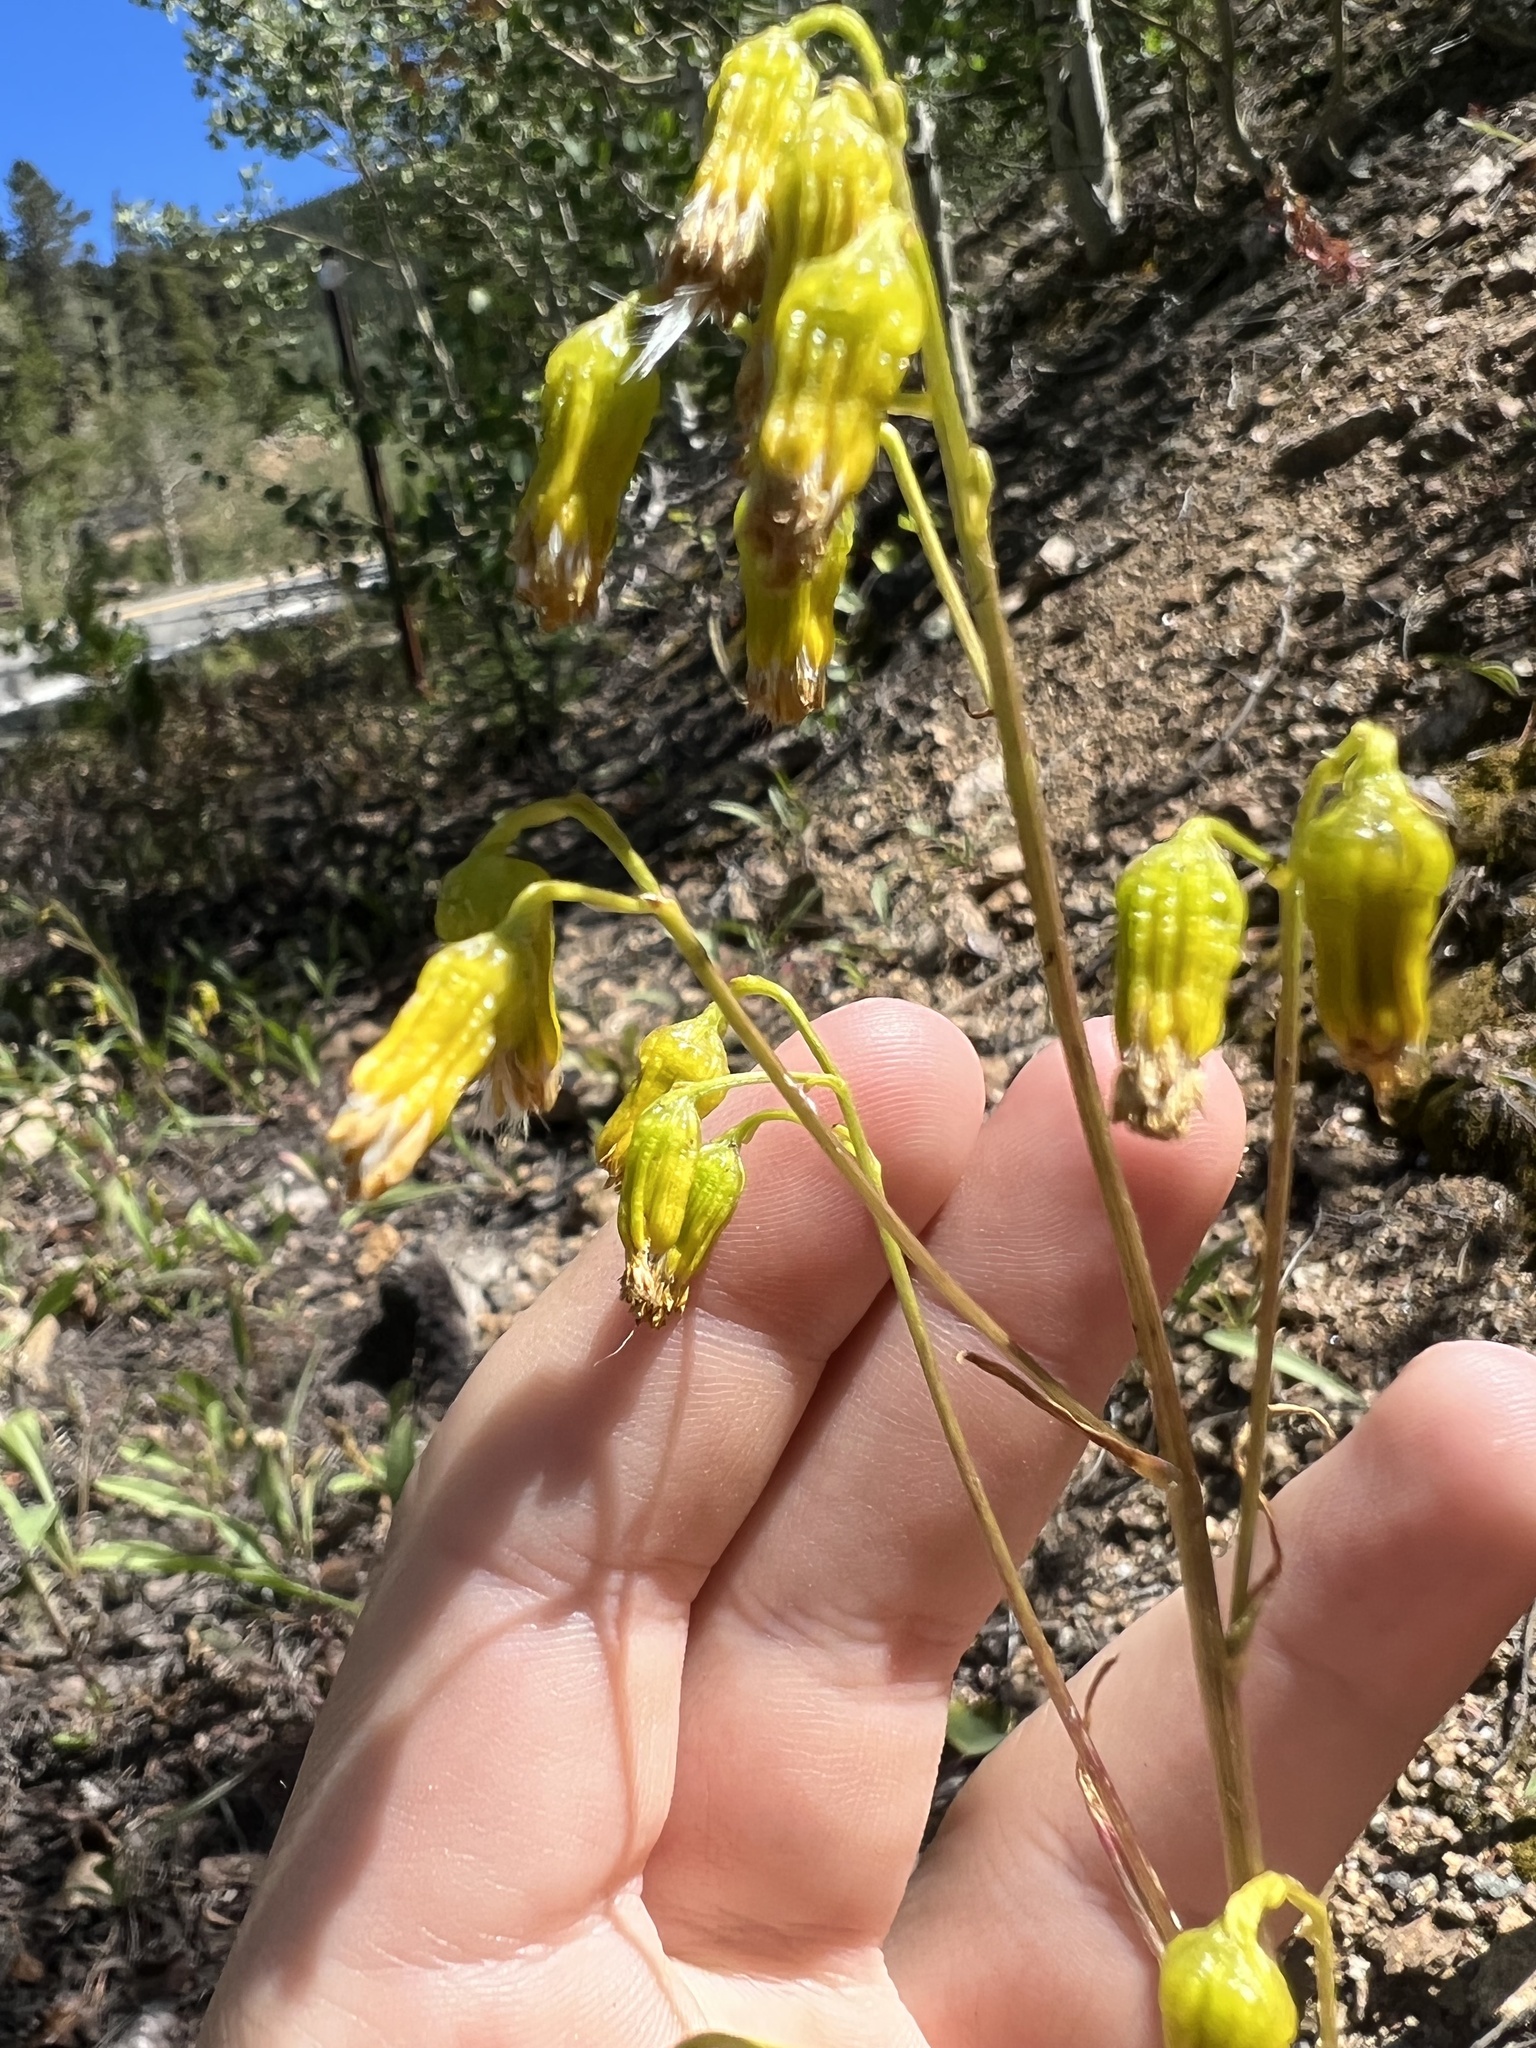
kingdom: Plantae
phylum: Tracheophyta
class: Magnoliopsida
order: Asterales
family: Asteraceae
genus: Senecio
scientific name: Senecio pudicus
